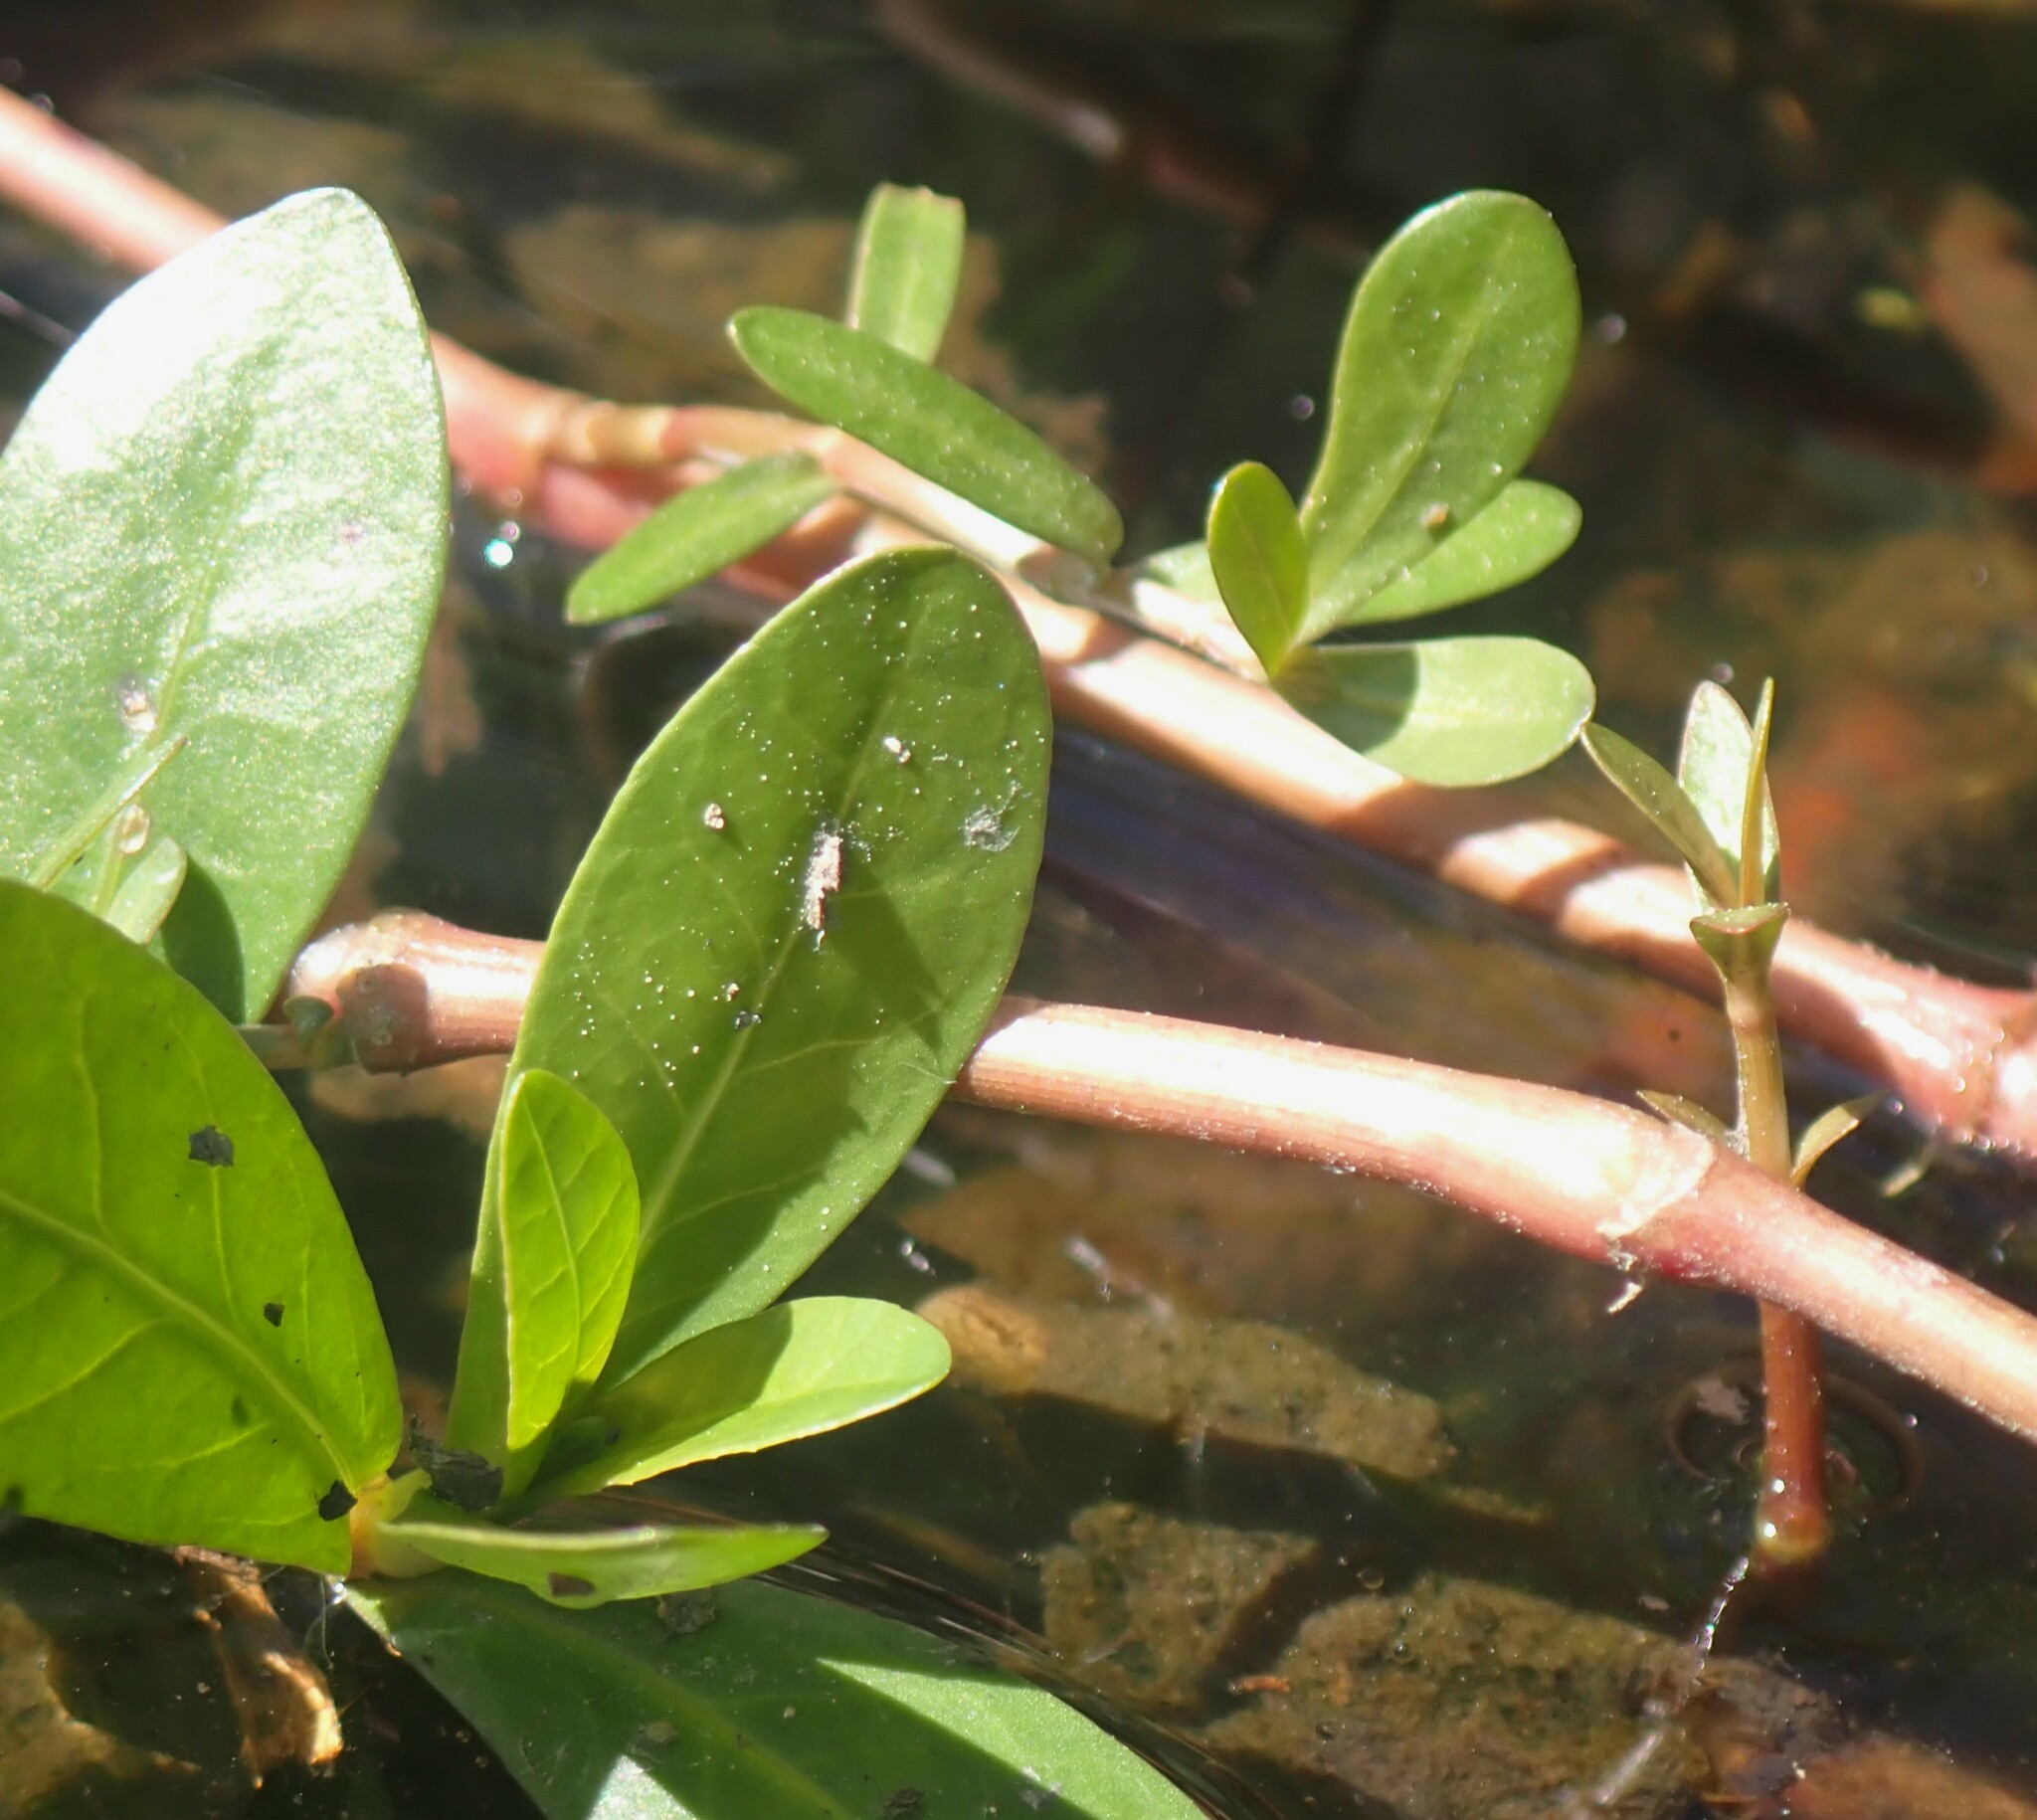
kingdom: Plantae
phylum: Tracheophyta
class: Magnoliopsida
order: Caryophyllales
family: Amaranthaceae
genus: Alternanthera
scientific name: Alternanthera philoxeroides
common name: Alligatorweed
